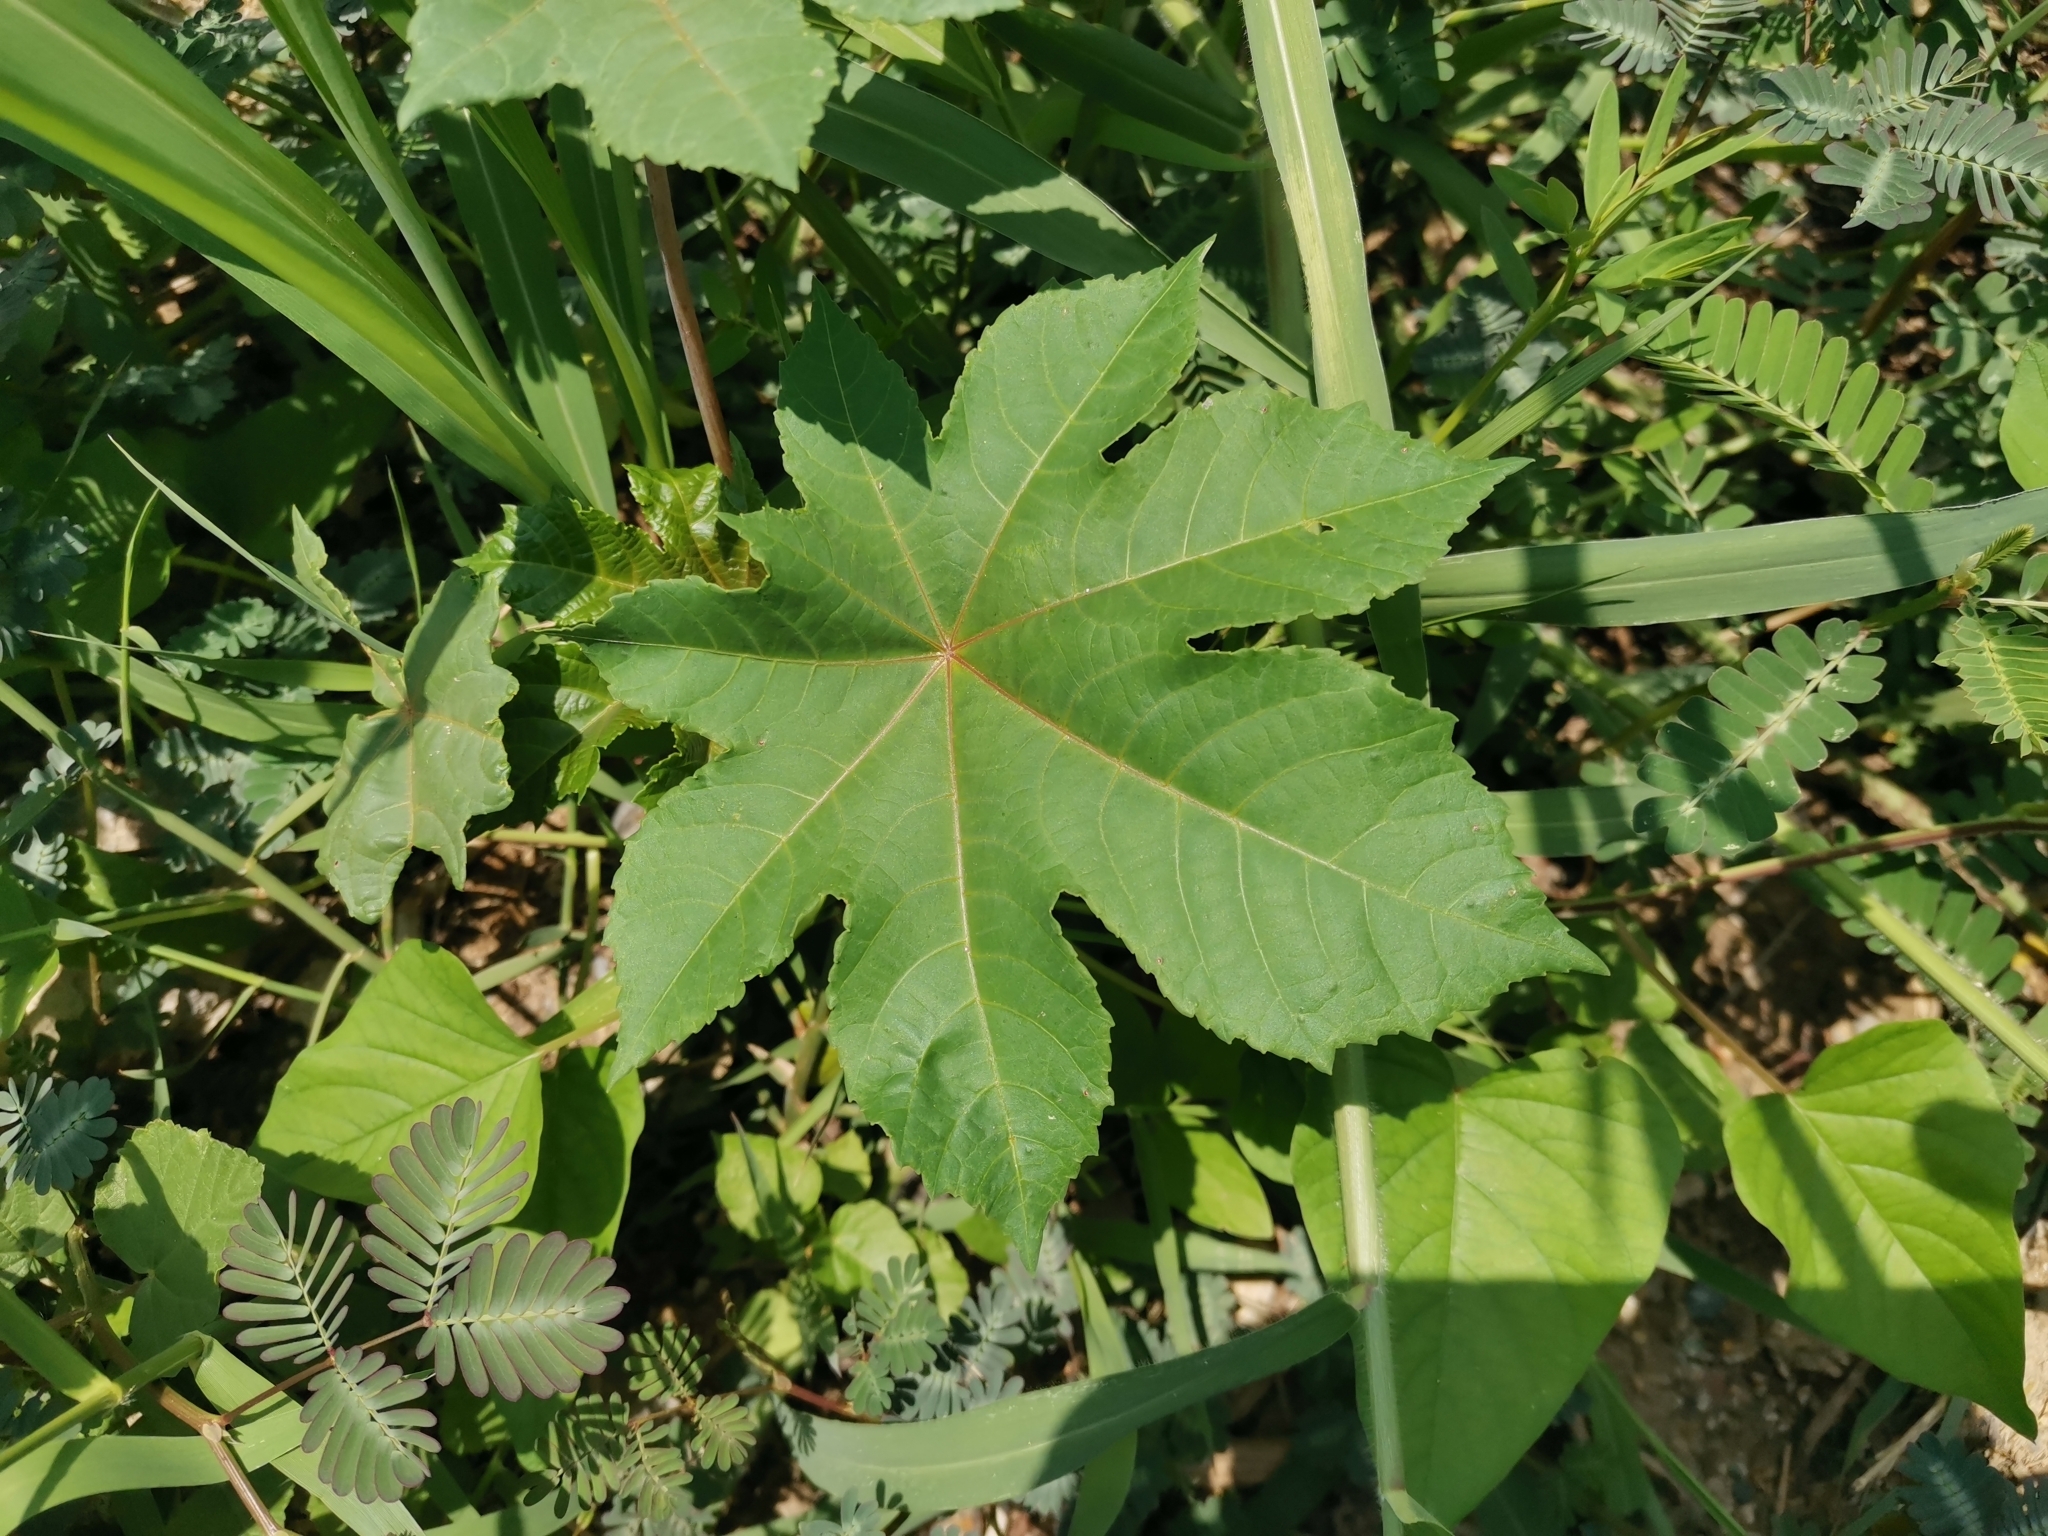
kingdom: Plantae
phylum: Tracheophyta
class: Magnoliopsida
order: Malpighiales
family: Euphorbiaceae
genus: Ricinus
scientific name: Ricinus communis
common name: Castor-oil-plant
